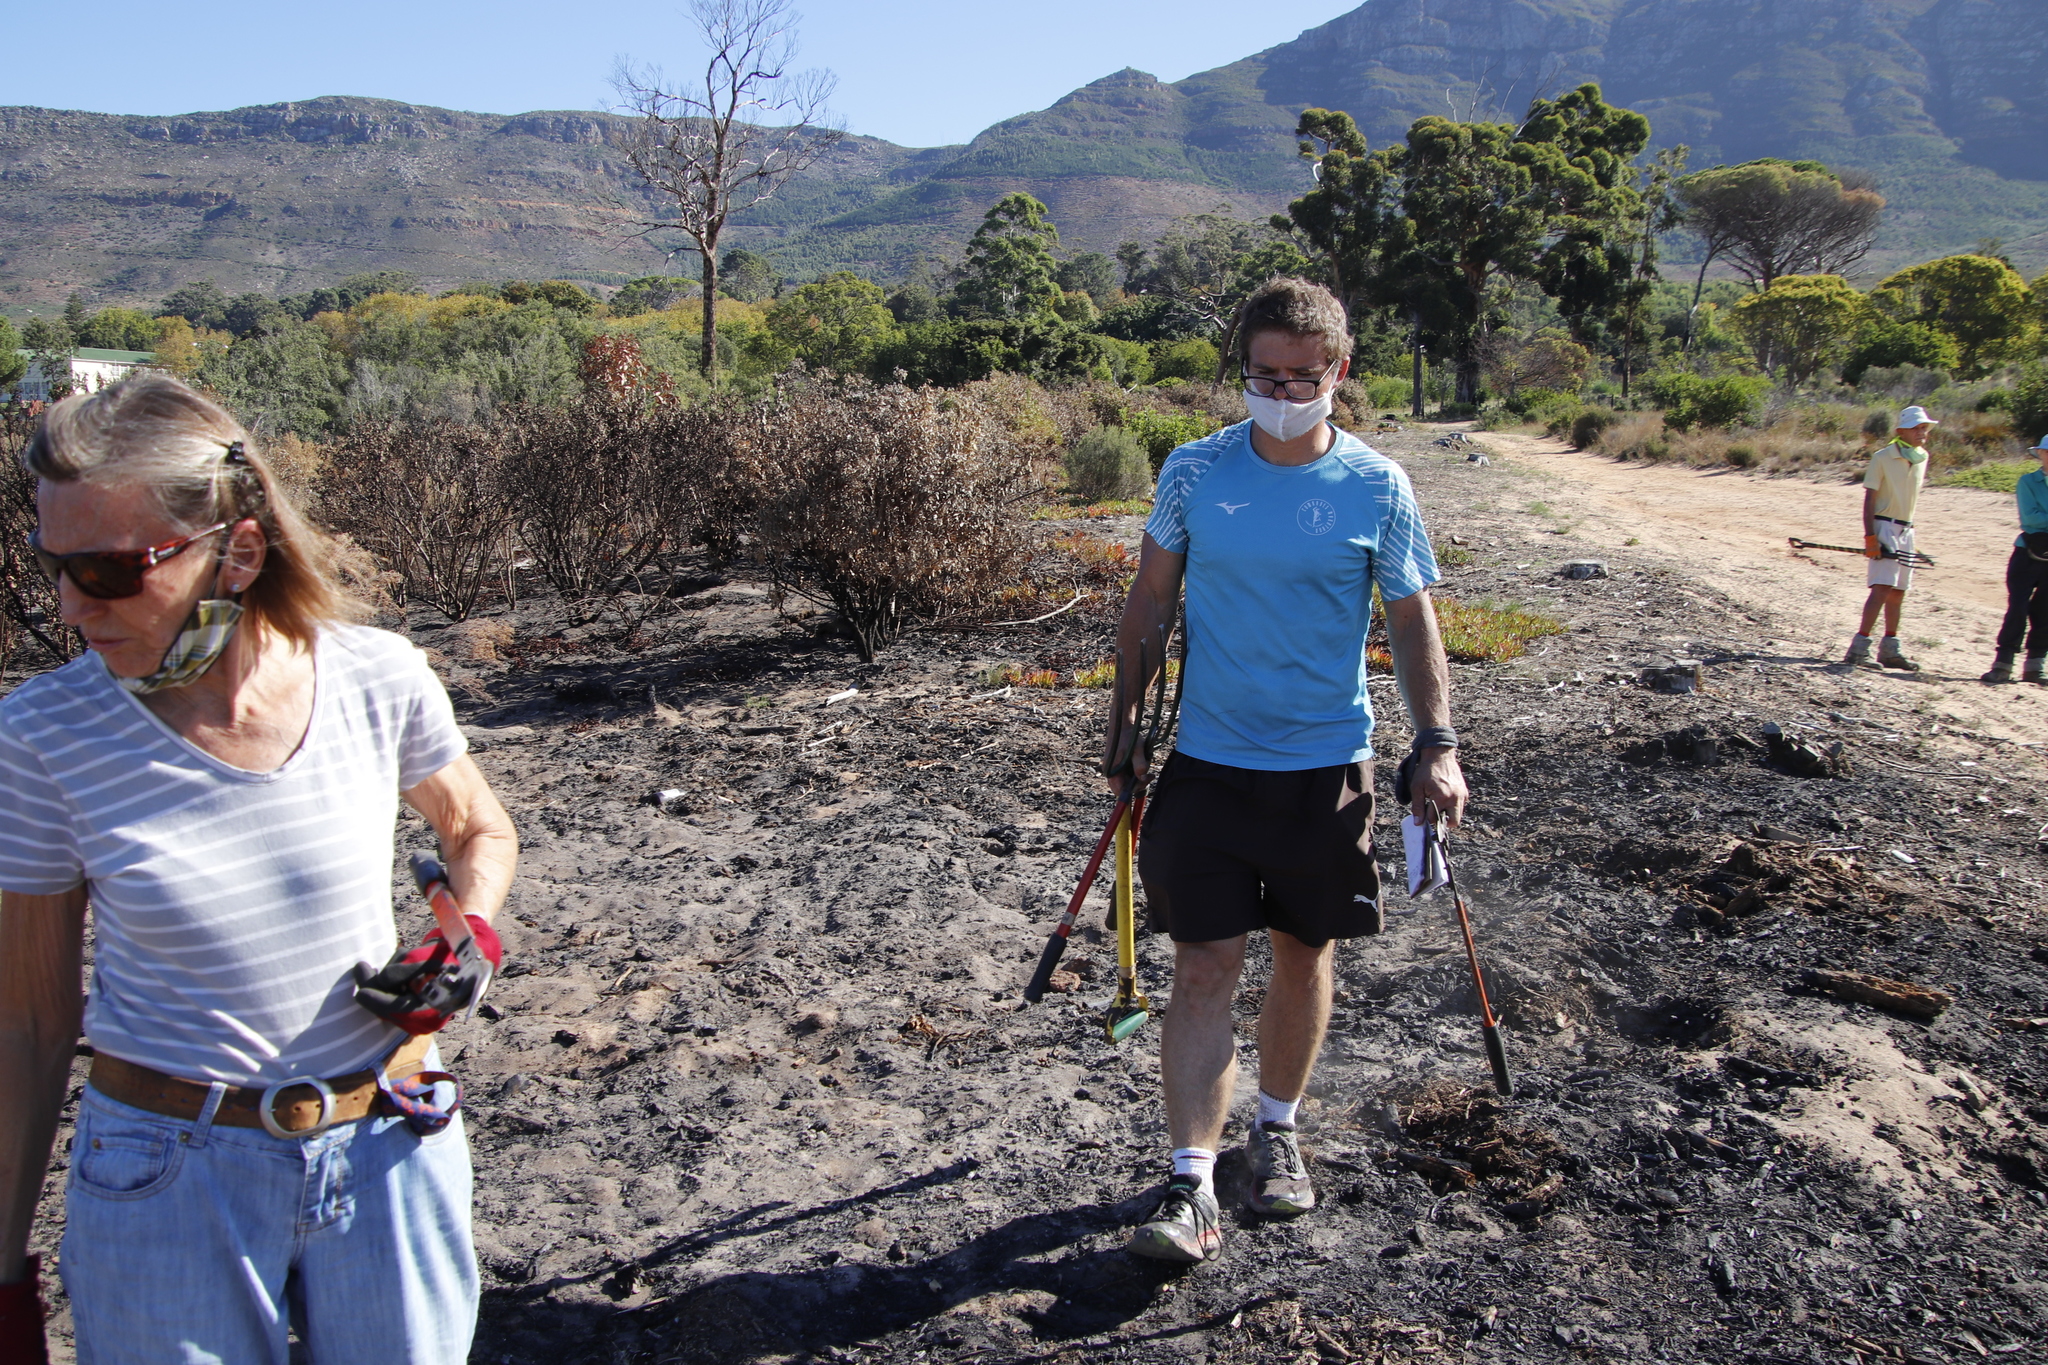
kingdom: Plantae
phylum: Tracheophyta
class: Magnoliopsida
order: Asterales
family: Asteraceae
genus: Osteospermum
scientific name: Osteospermum moniliferum
